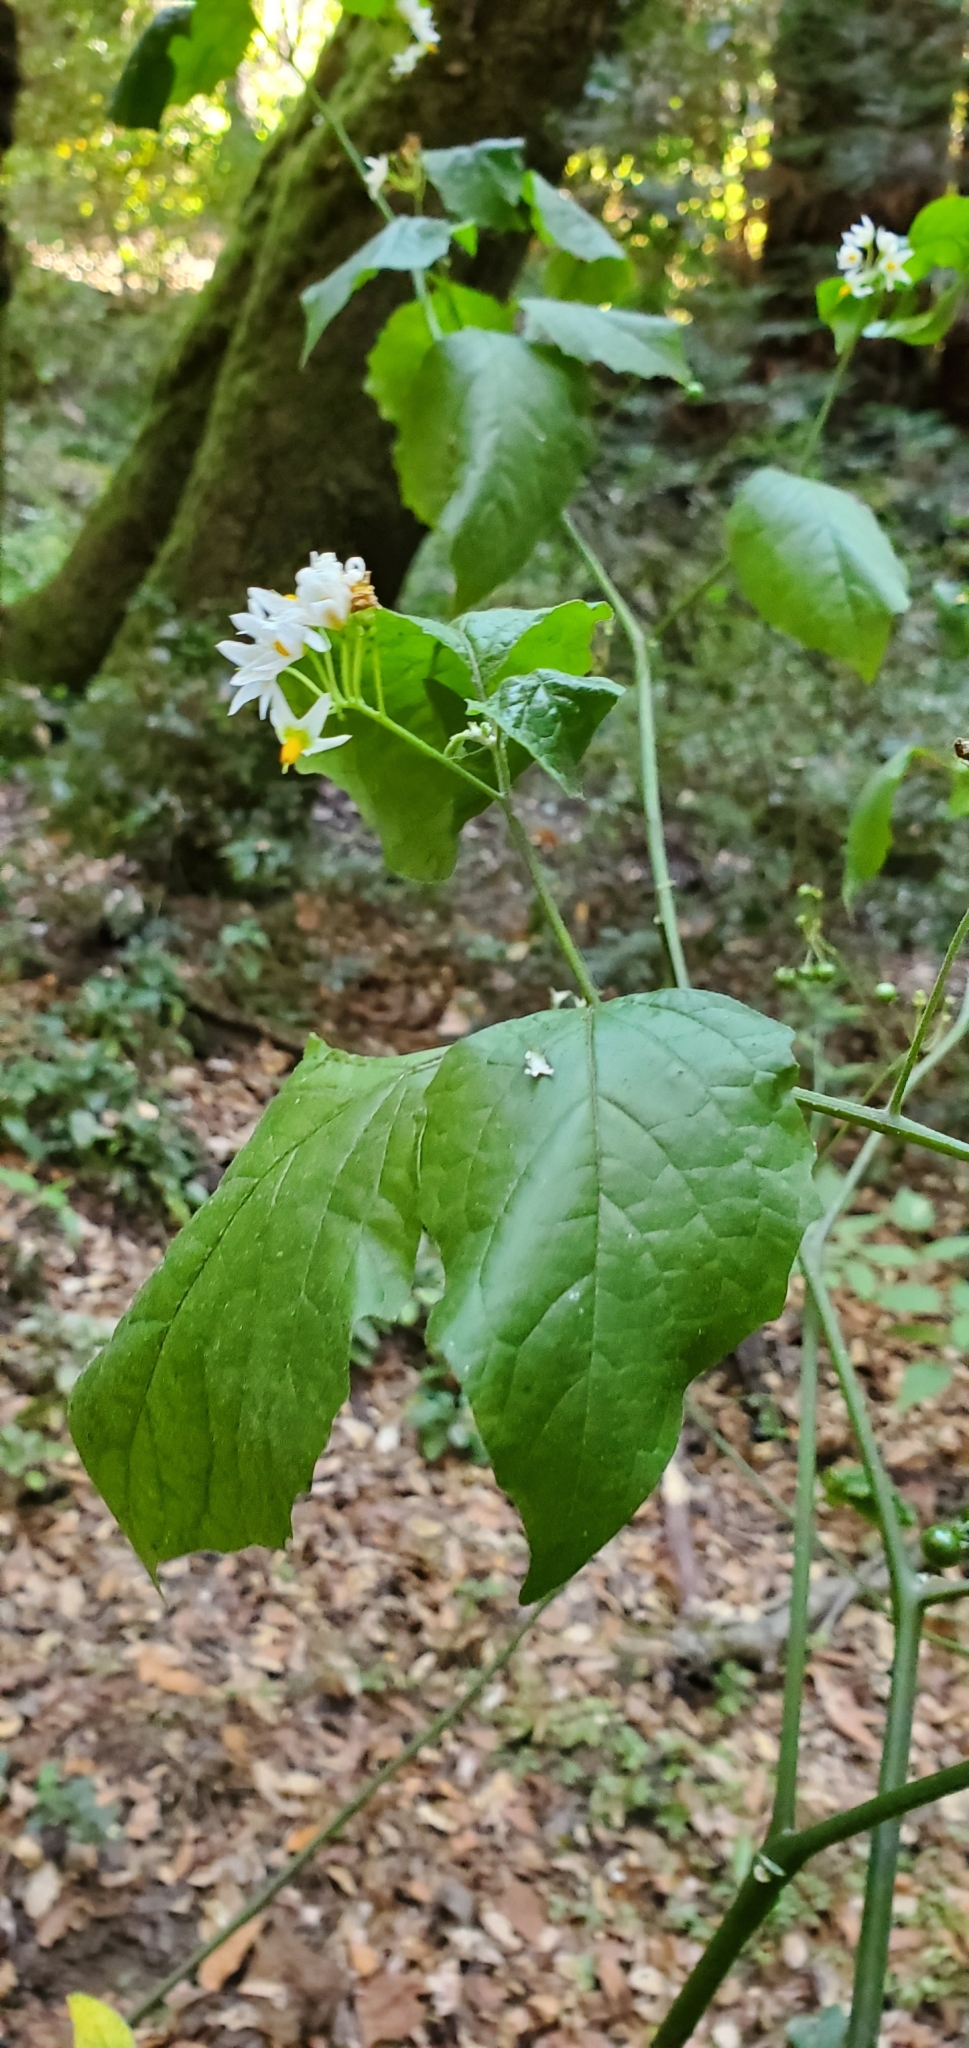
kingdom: Plantae
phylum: Tracheophyta
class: Magnoliopsida
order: Solanales
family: Solanaceae
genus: Solanum
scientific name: Solanum douglasii
